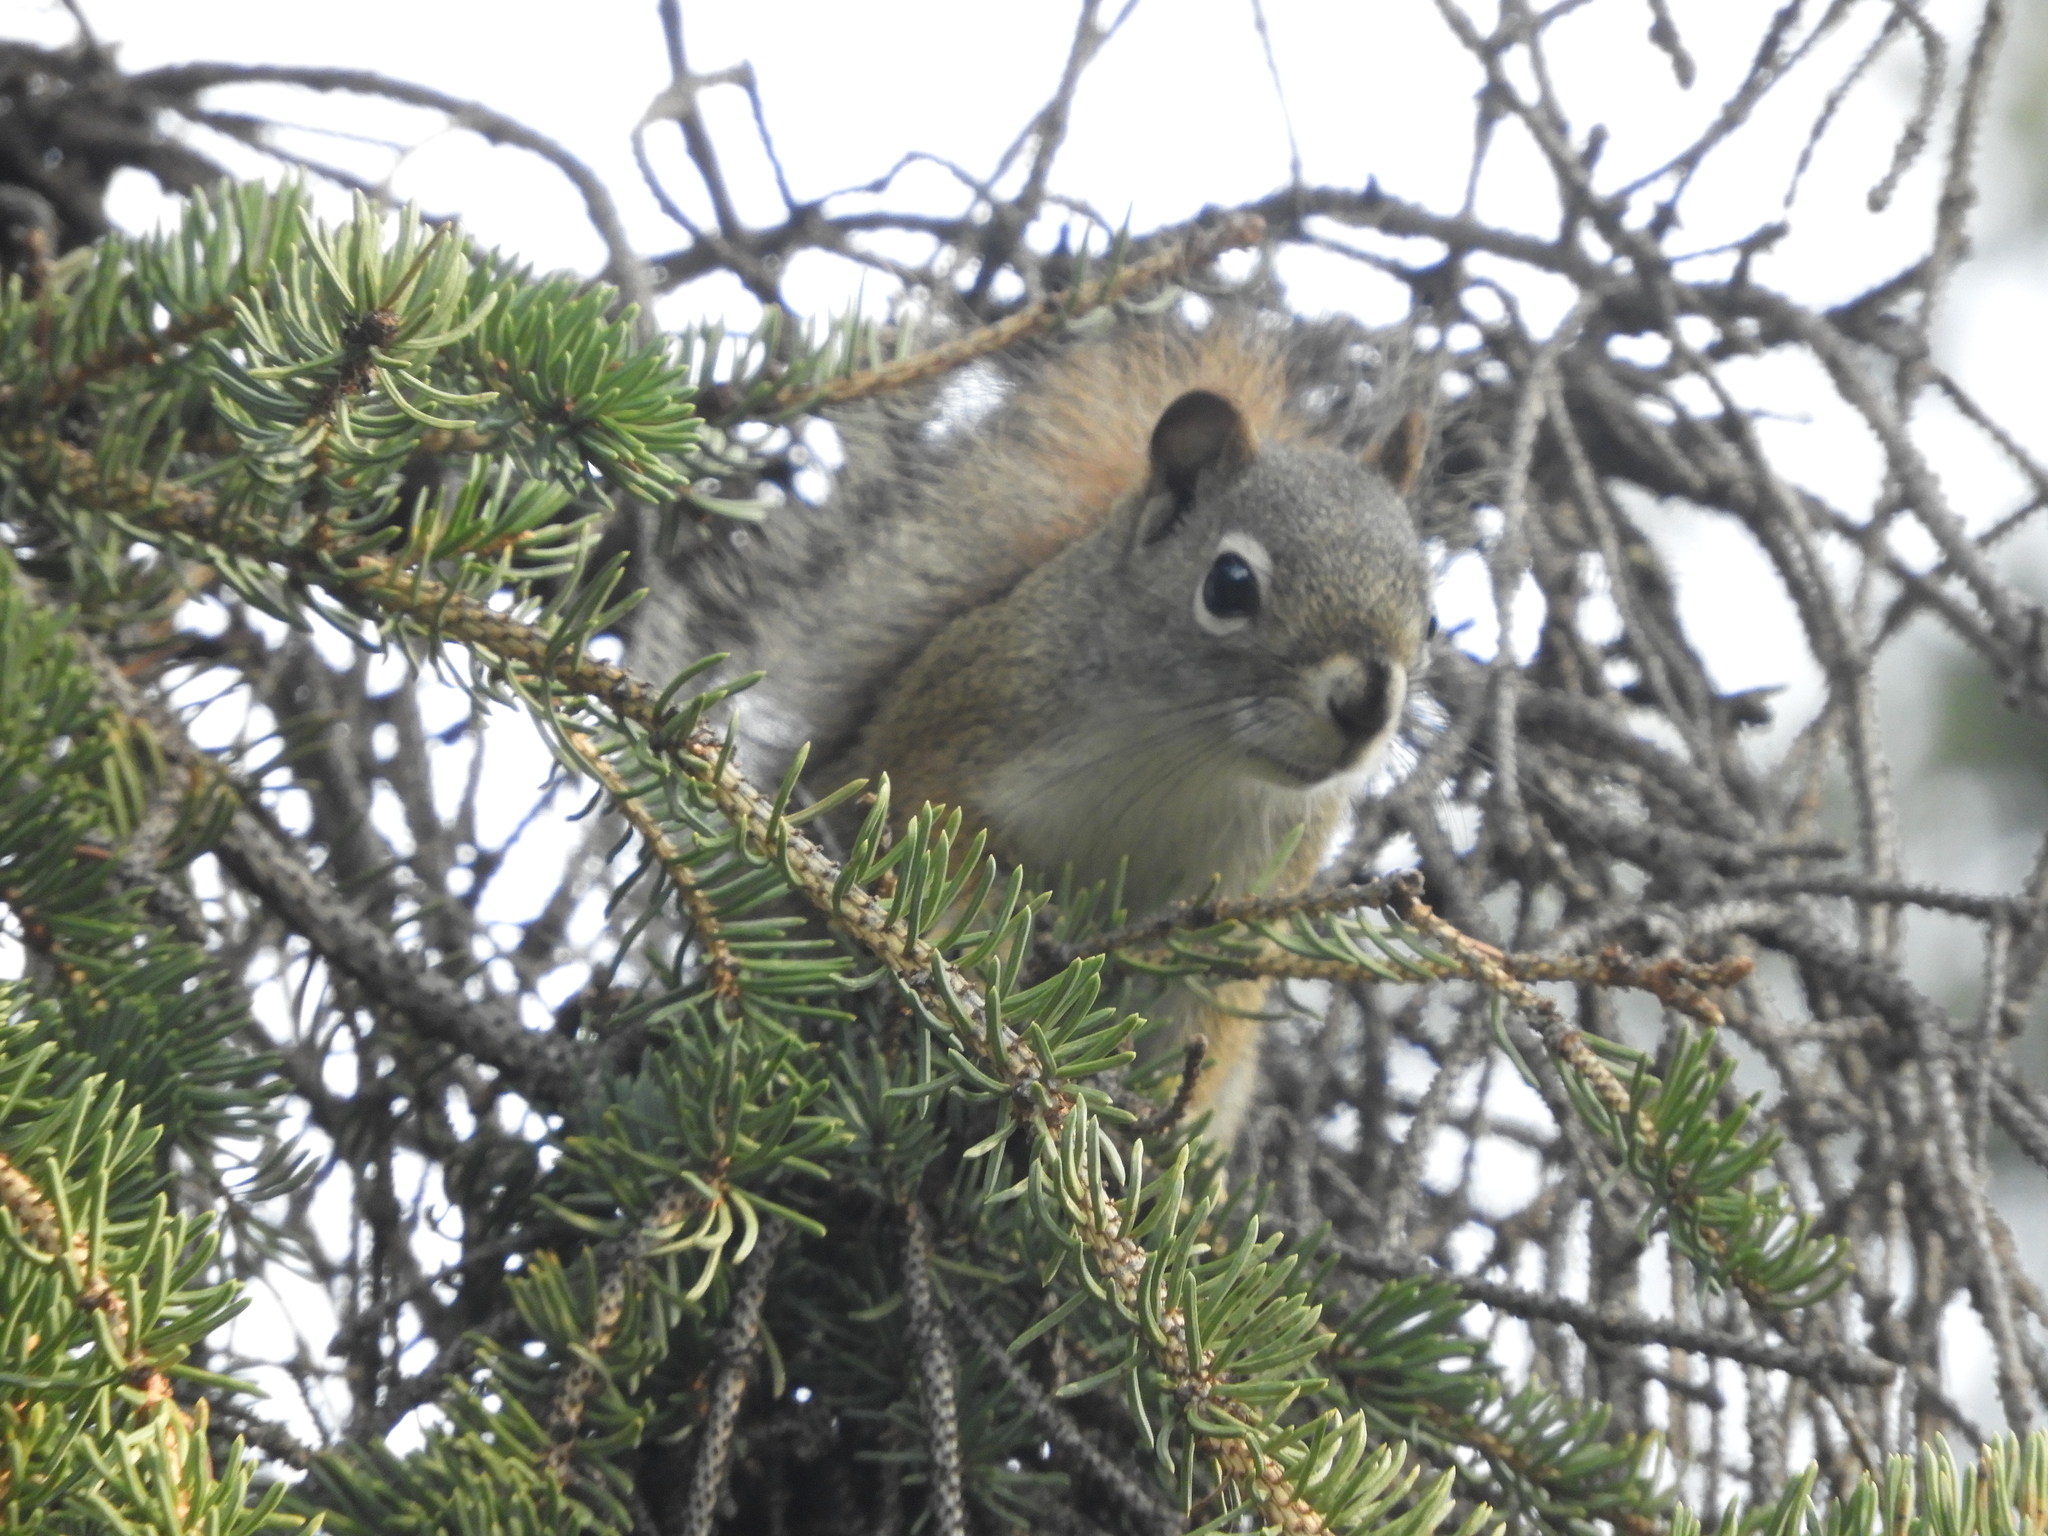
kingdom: Animalia
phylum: Chordata
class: Mammalia
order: Rodentia
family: Sciuridae
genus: Tamiasciurus
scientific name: Tamiasciurus hudsonicus
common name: Red squirrel
